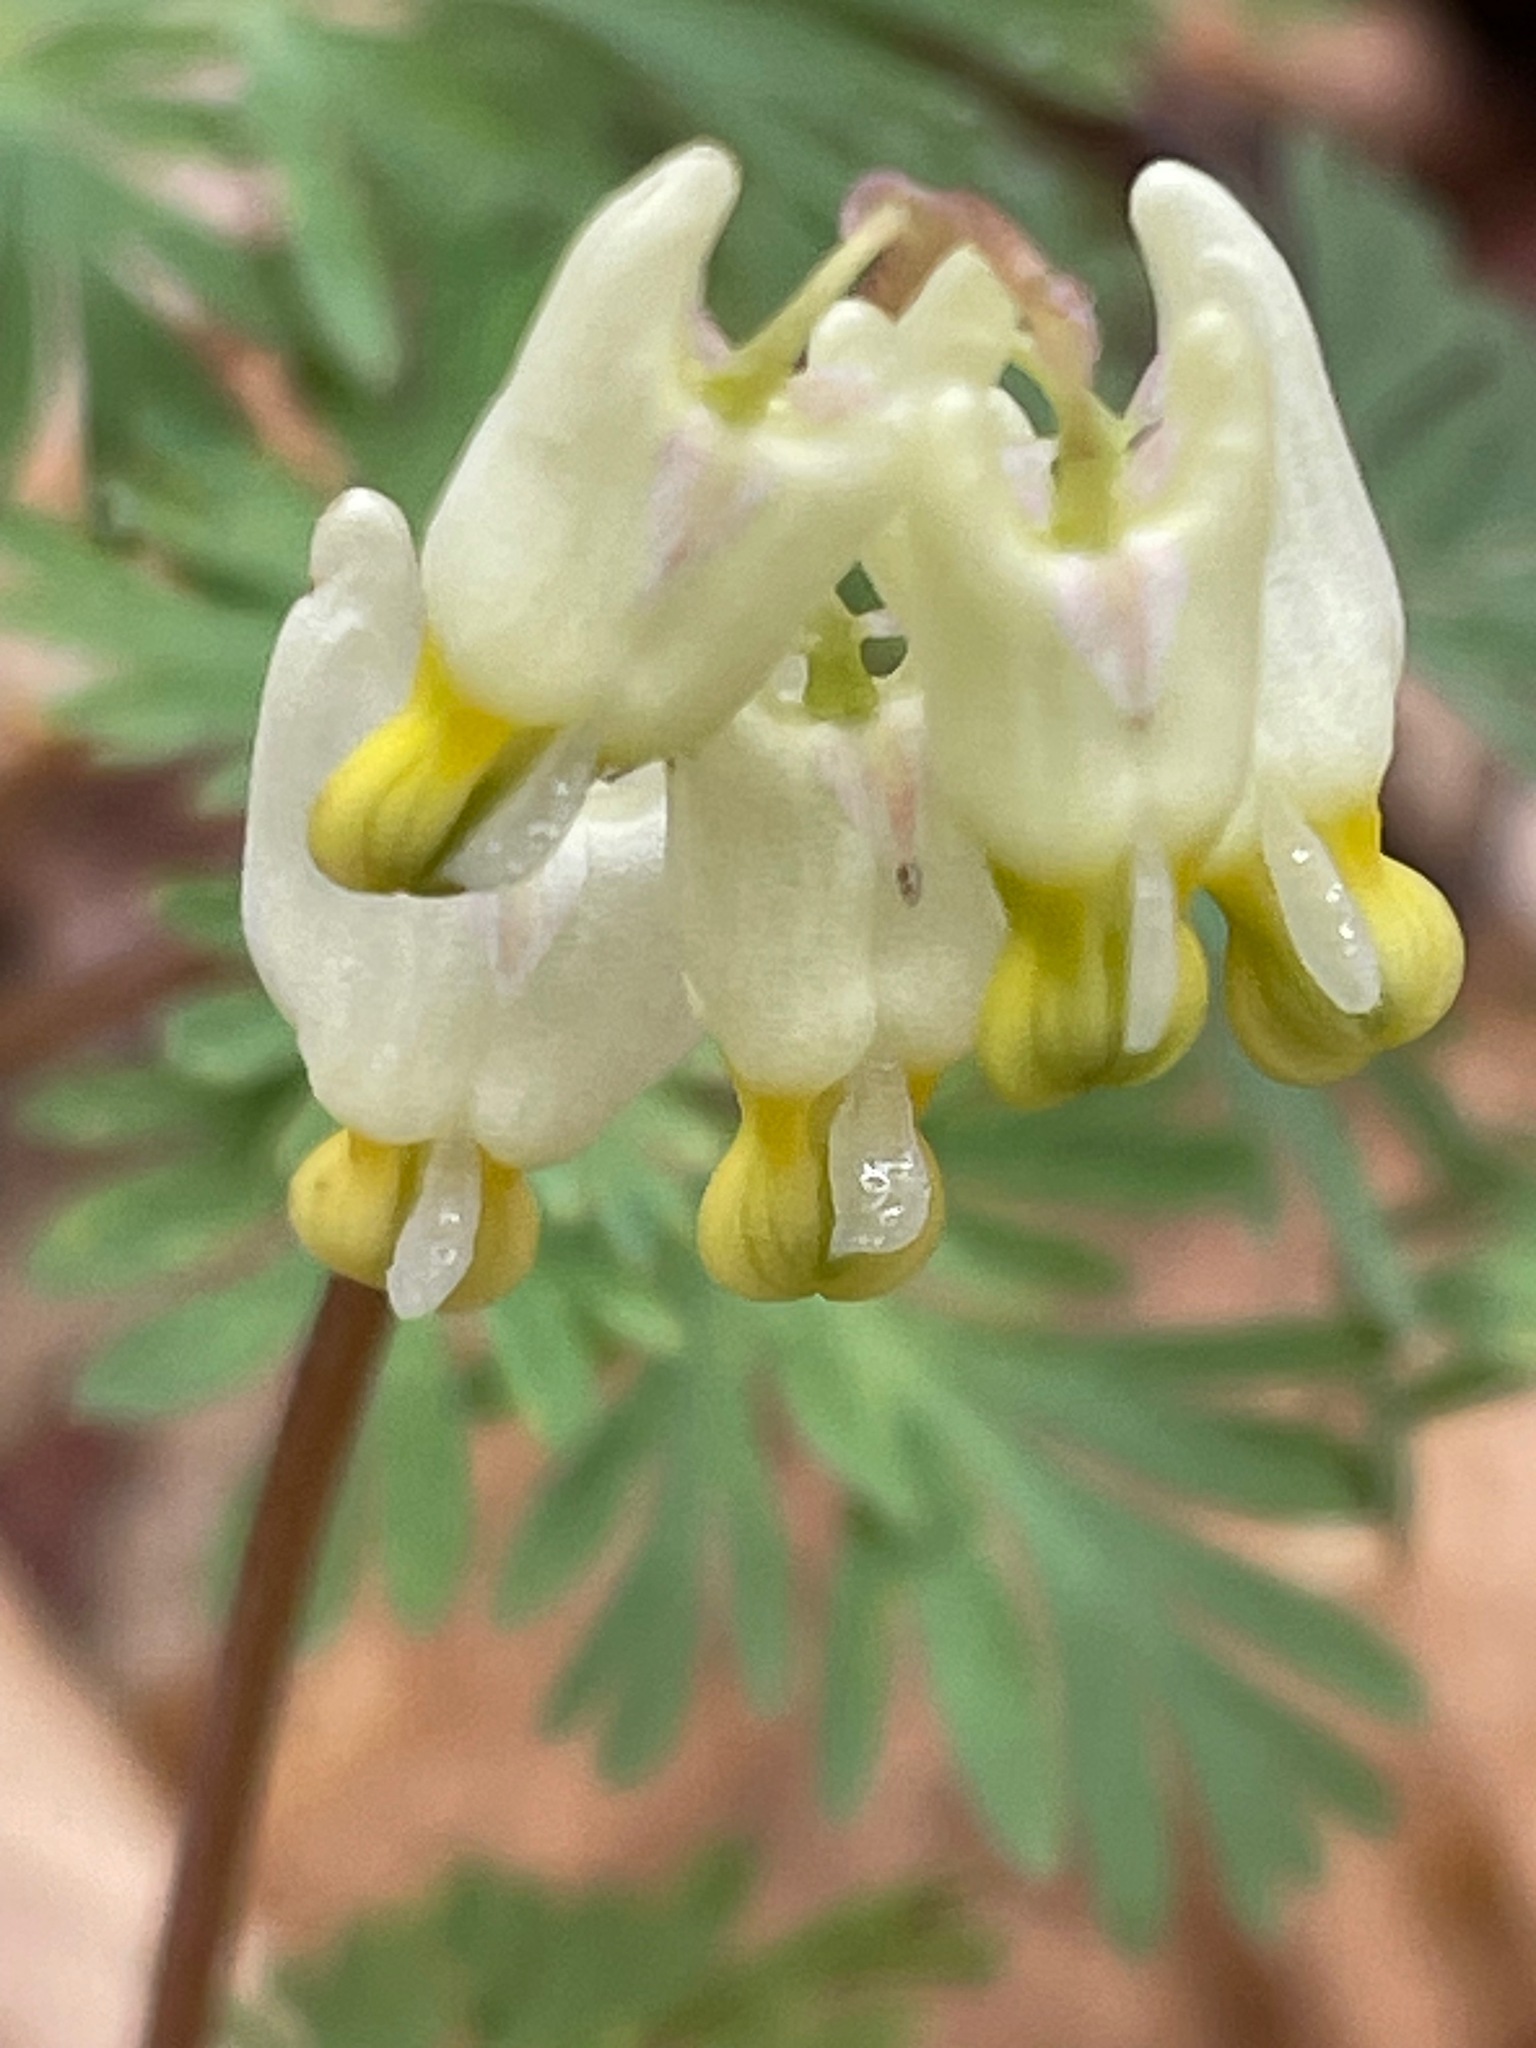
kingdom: Plantae
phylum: Tracheophyta
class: Magnoliopsida
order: Ranunculales
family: Papaveraceae
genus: Dicentra
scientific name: Dicentra cucullaria
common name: Dutchman's breeches
